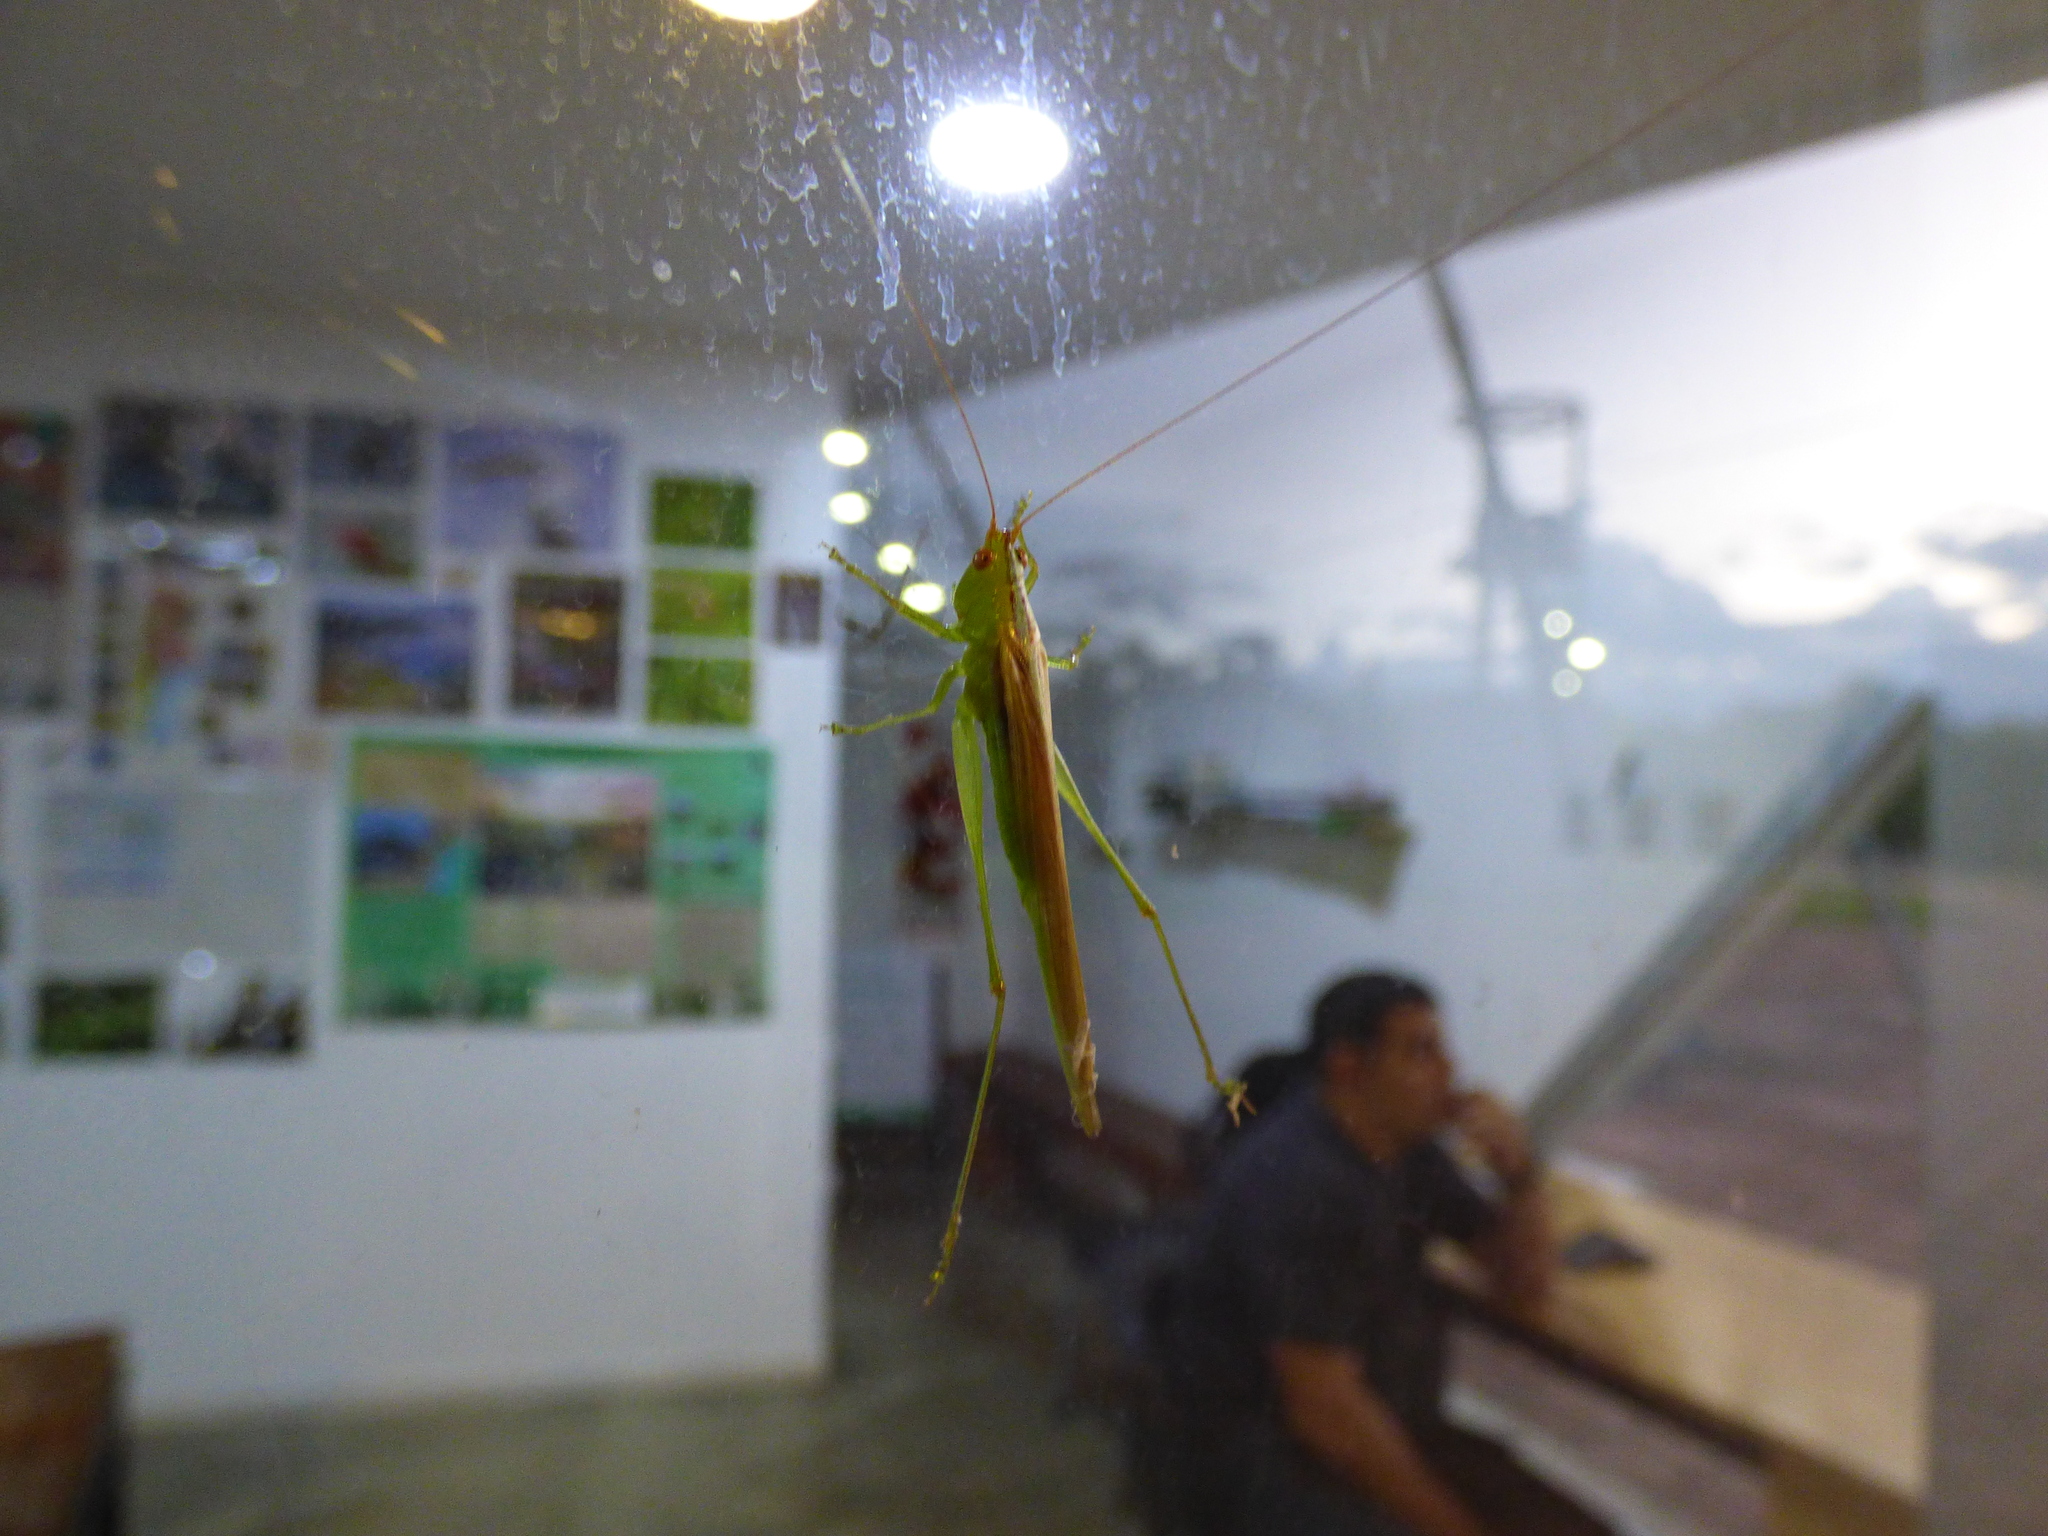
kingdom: Animalia
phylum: Arthropoda
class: Insecta
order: Orthoptera
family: Tettigoniidae
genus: Conocephalus
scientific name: Conocephalus longipes
